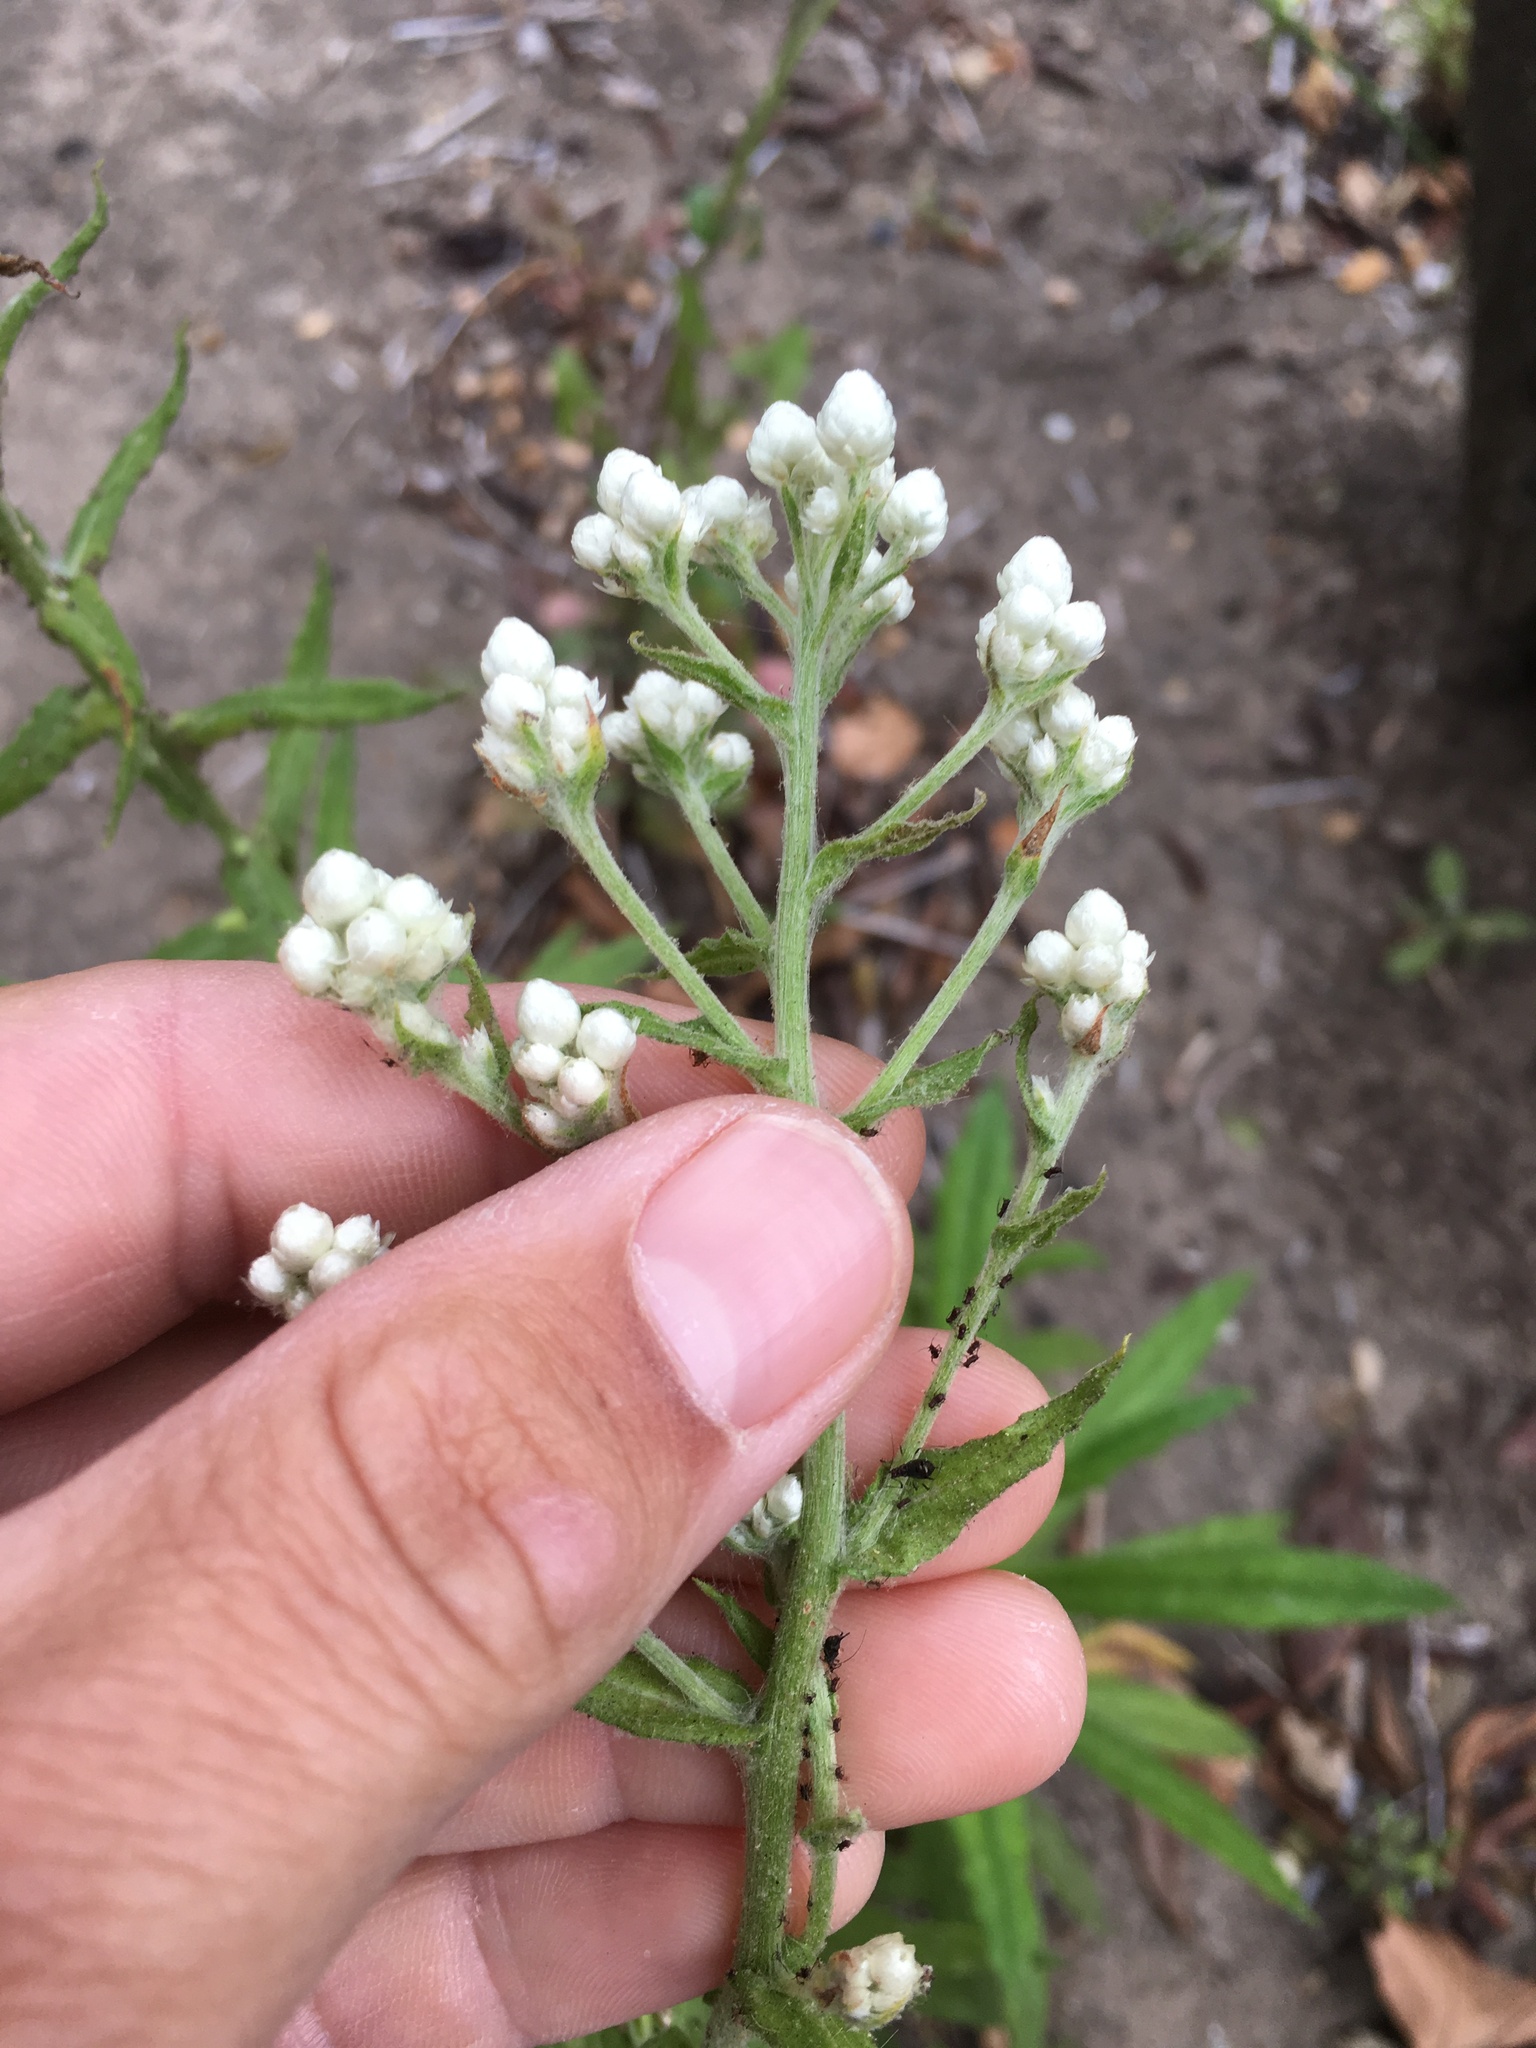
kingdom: Plantae
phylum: Tracheophyta
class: Magnoliopsida
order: Asterales
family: Asteraceae
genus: Pseudognaphalium
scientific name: Pseudognaphalium californicum
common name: California rabbit-tobacco
